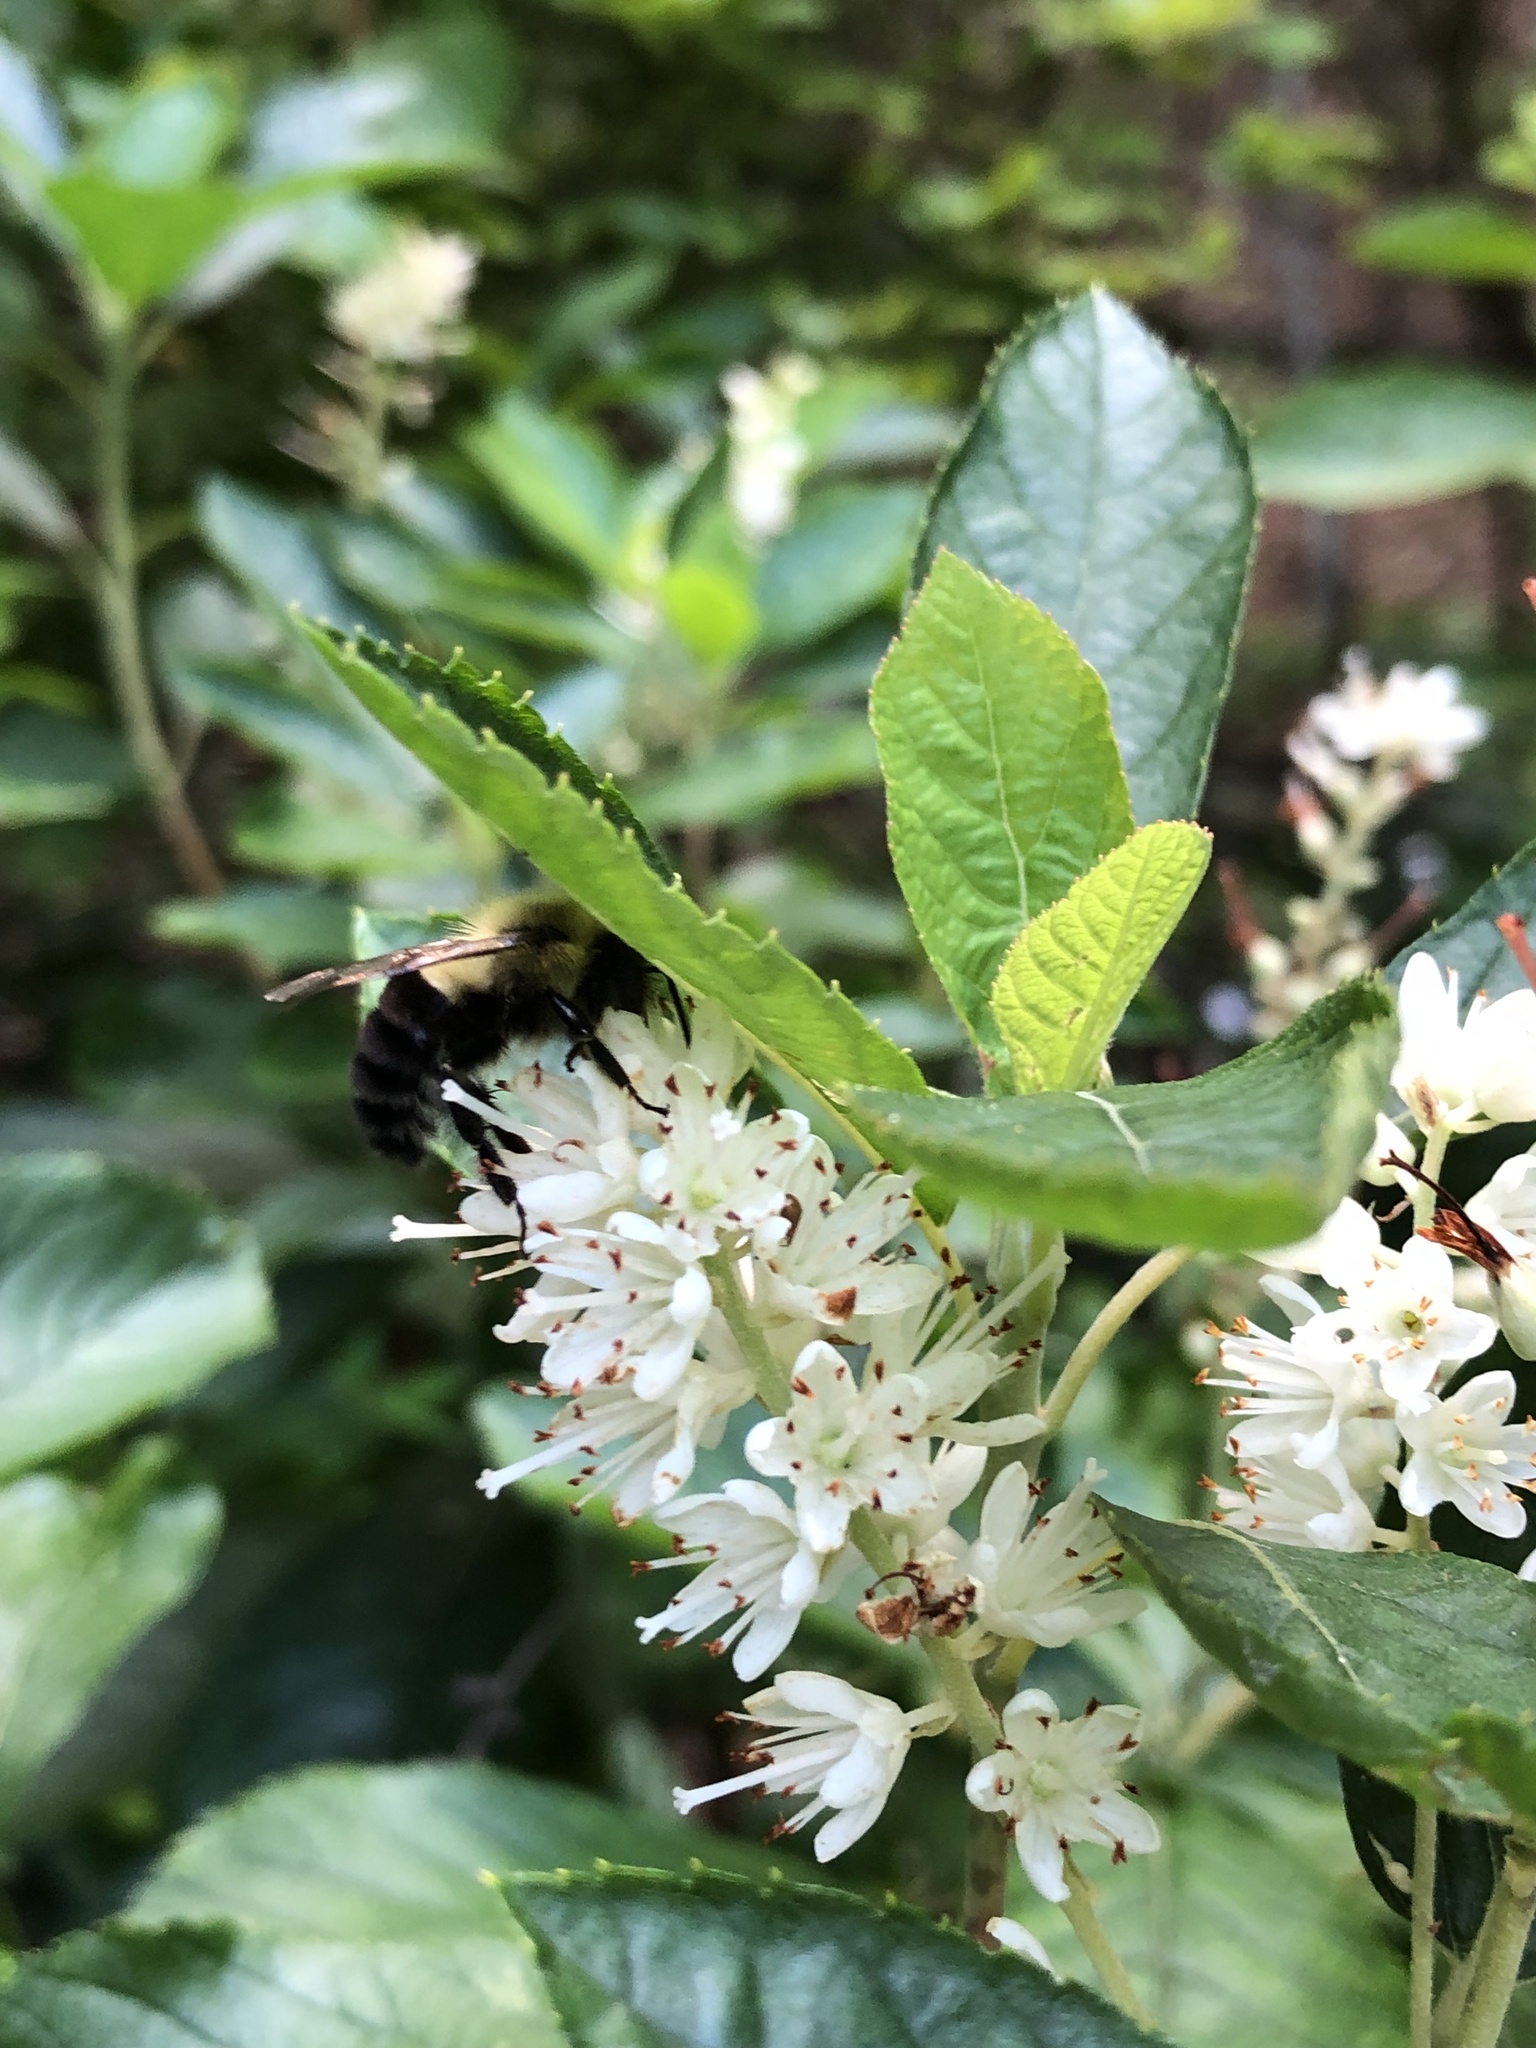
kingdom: Animalia
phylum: Arthropoda
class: Insecta
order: Hymenoptera
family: Apidae
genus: Bombus
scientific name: Bombus impatiens
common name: Common eastern bumble bee
